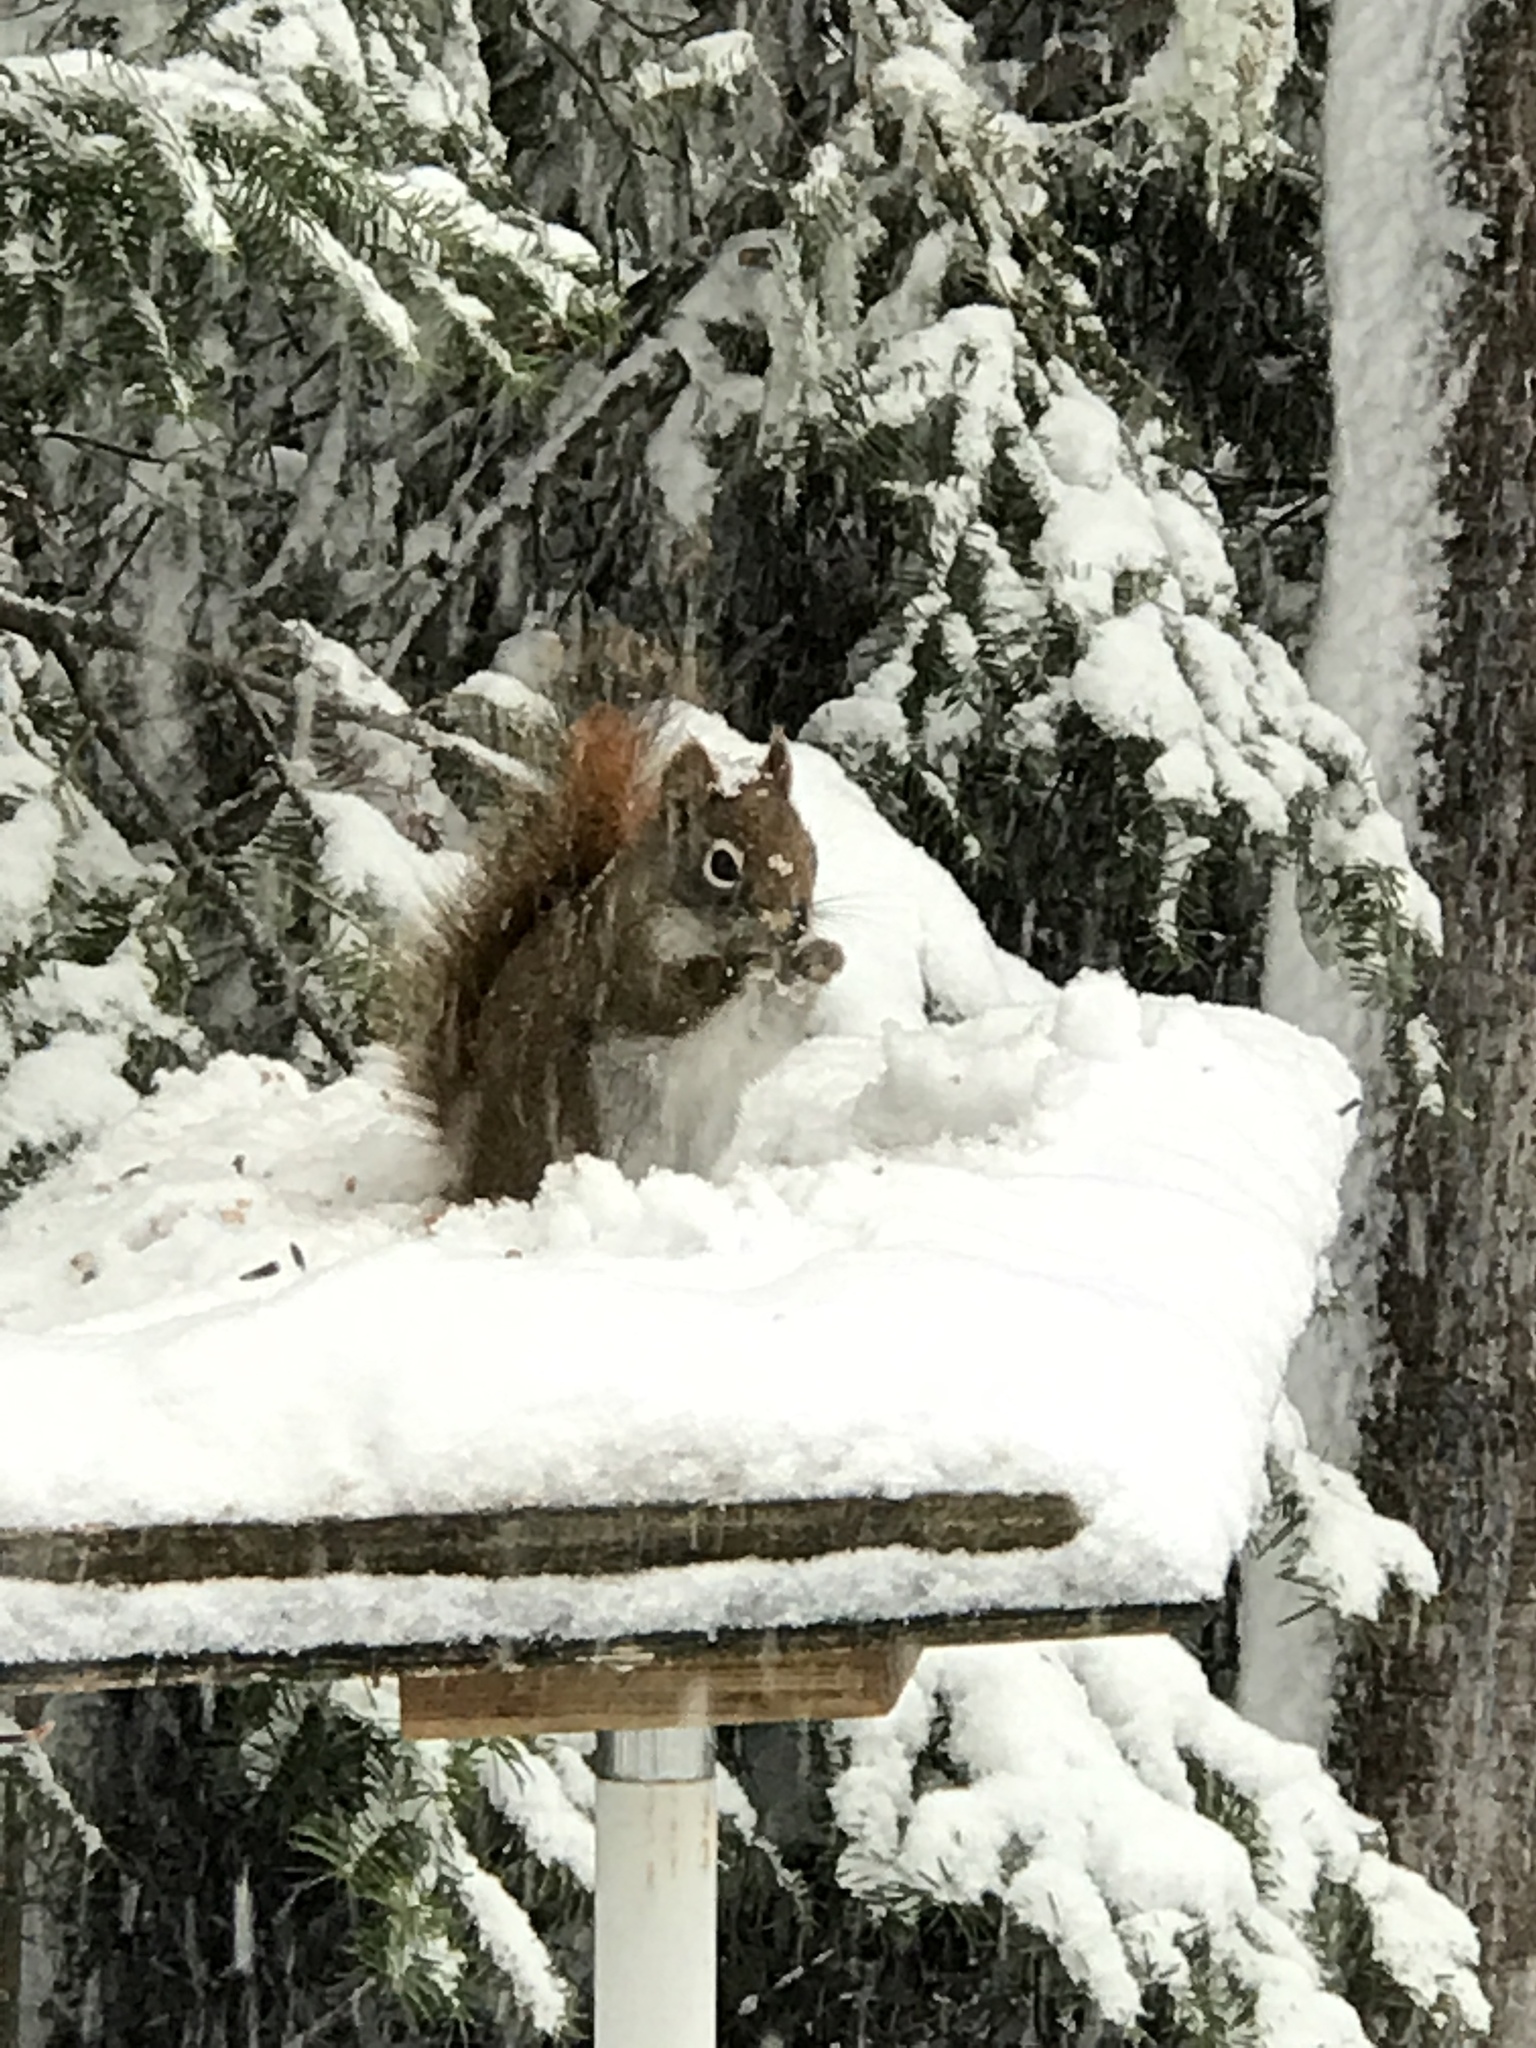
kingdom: Animalia
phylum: Chordata
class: Mammalia
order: Rodentia
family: Sciuridae
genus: Tamiasciurus
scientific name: Tamiasciurus hudsonicus
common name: Red squirrel
